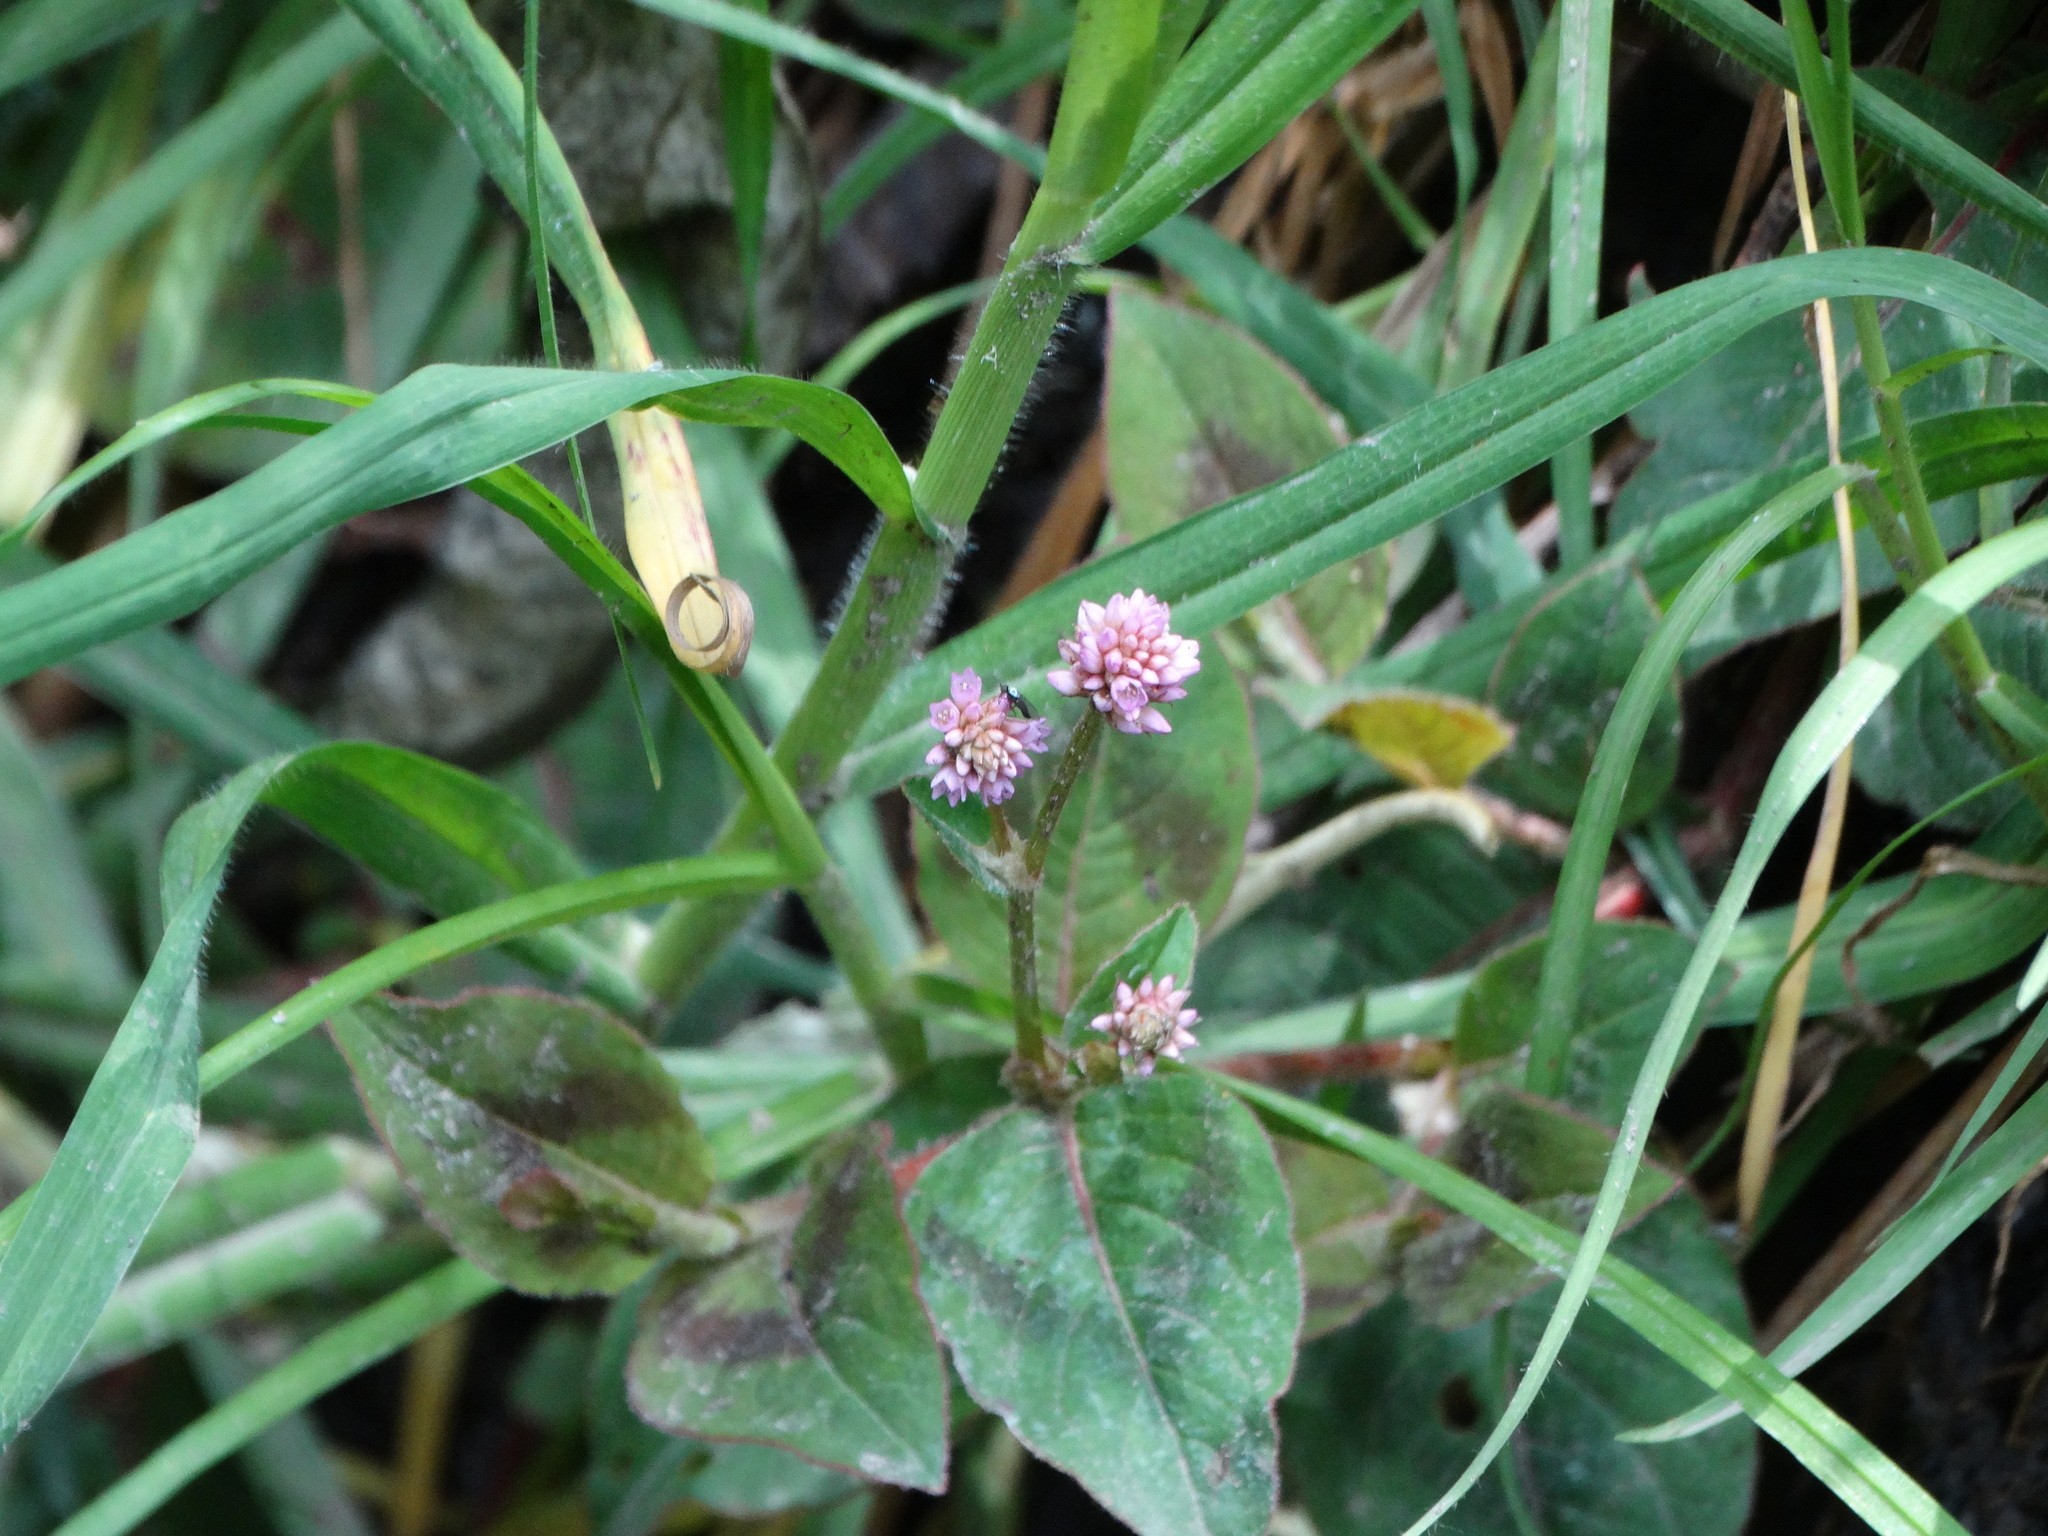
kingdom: Plantae
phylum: Tracheophyta
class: Magnoliopsida
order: Caryophyllales
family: Polygonaceae
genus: Persicaria
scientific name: Persicaria capitata
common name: Pinkhead smartweed
